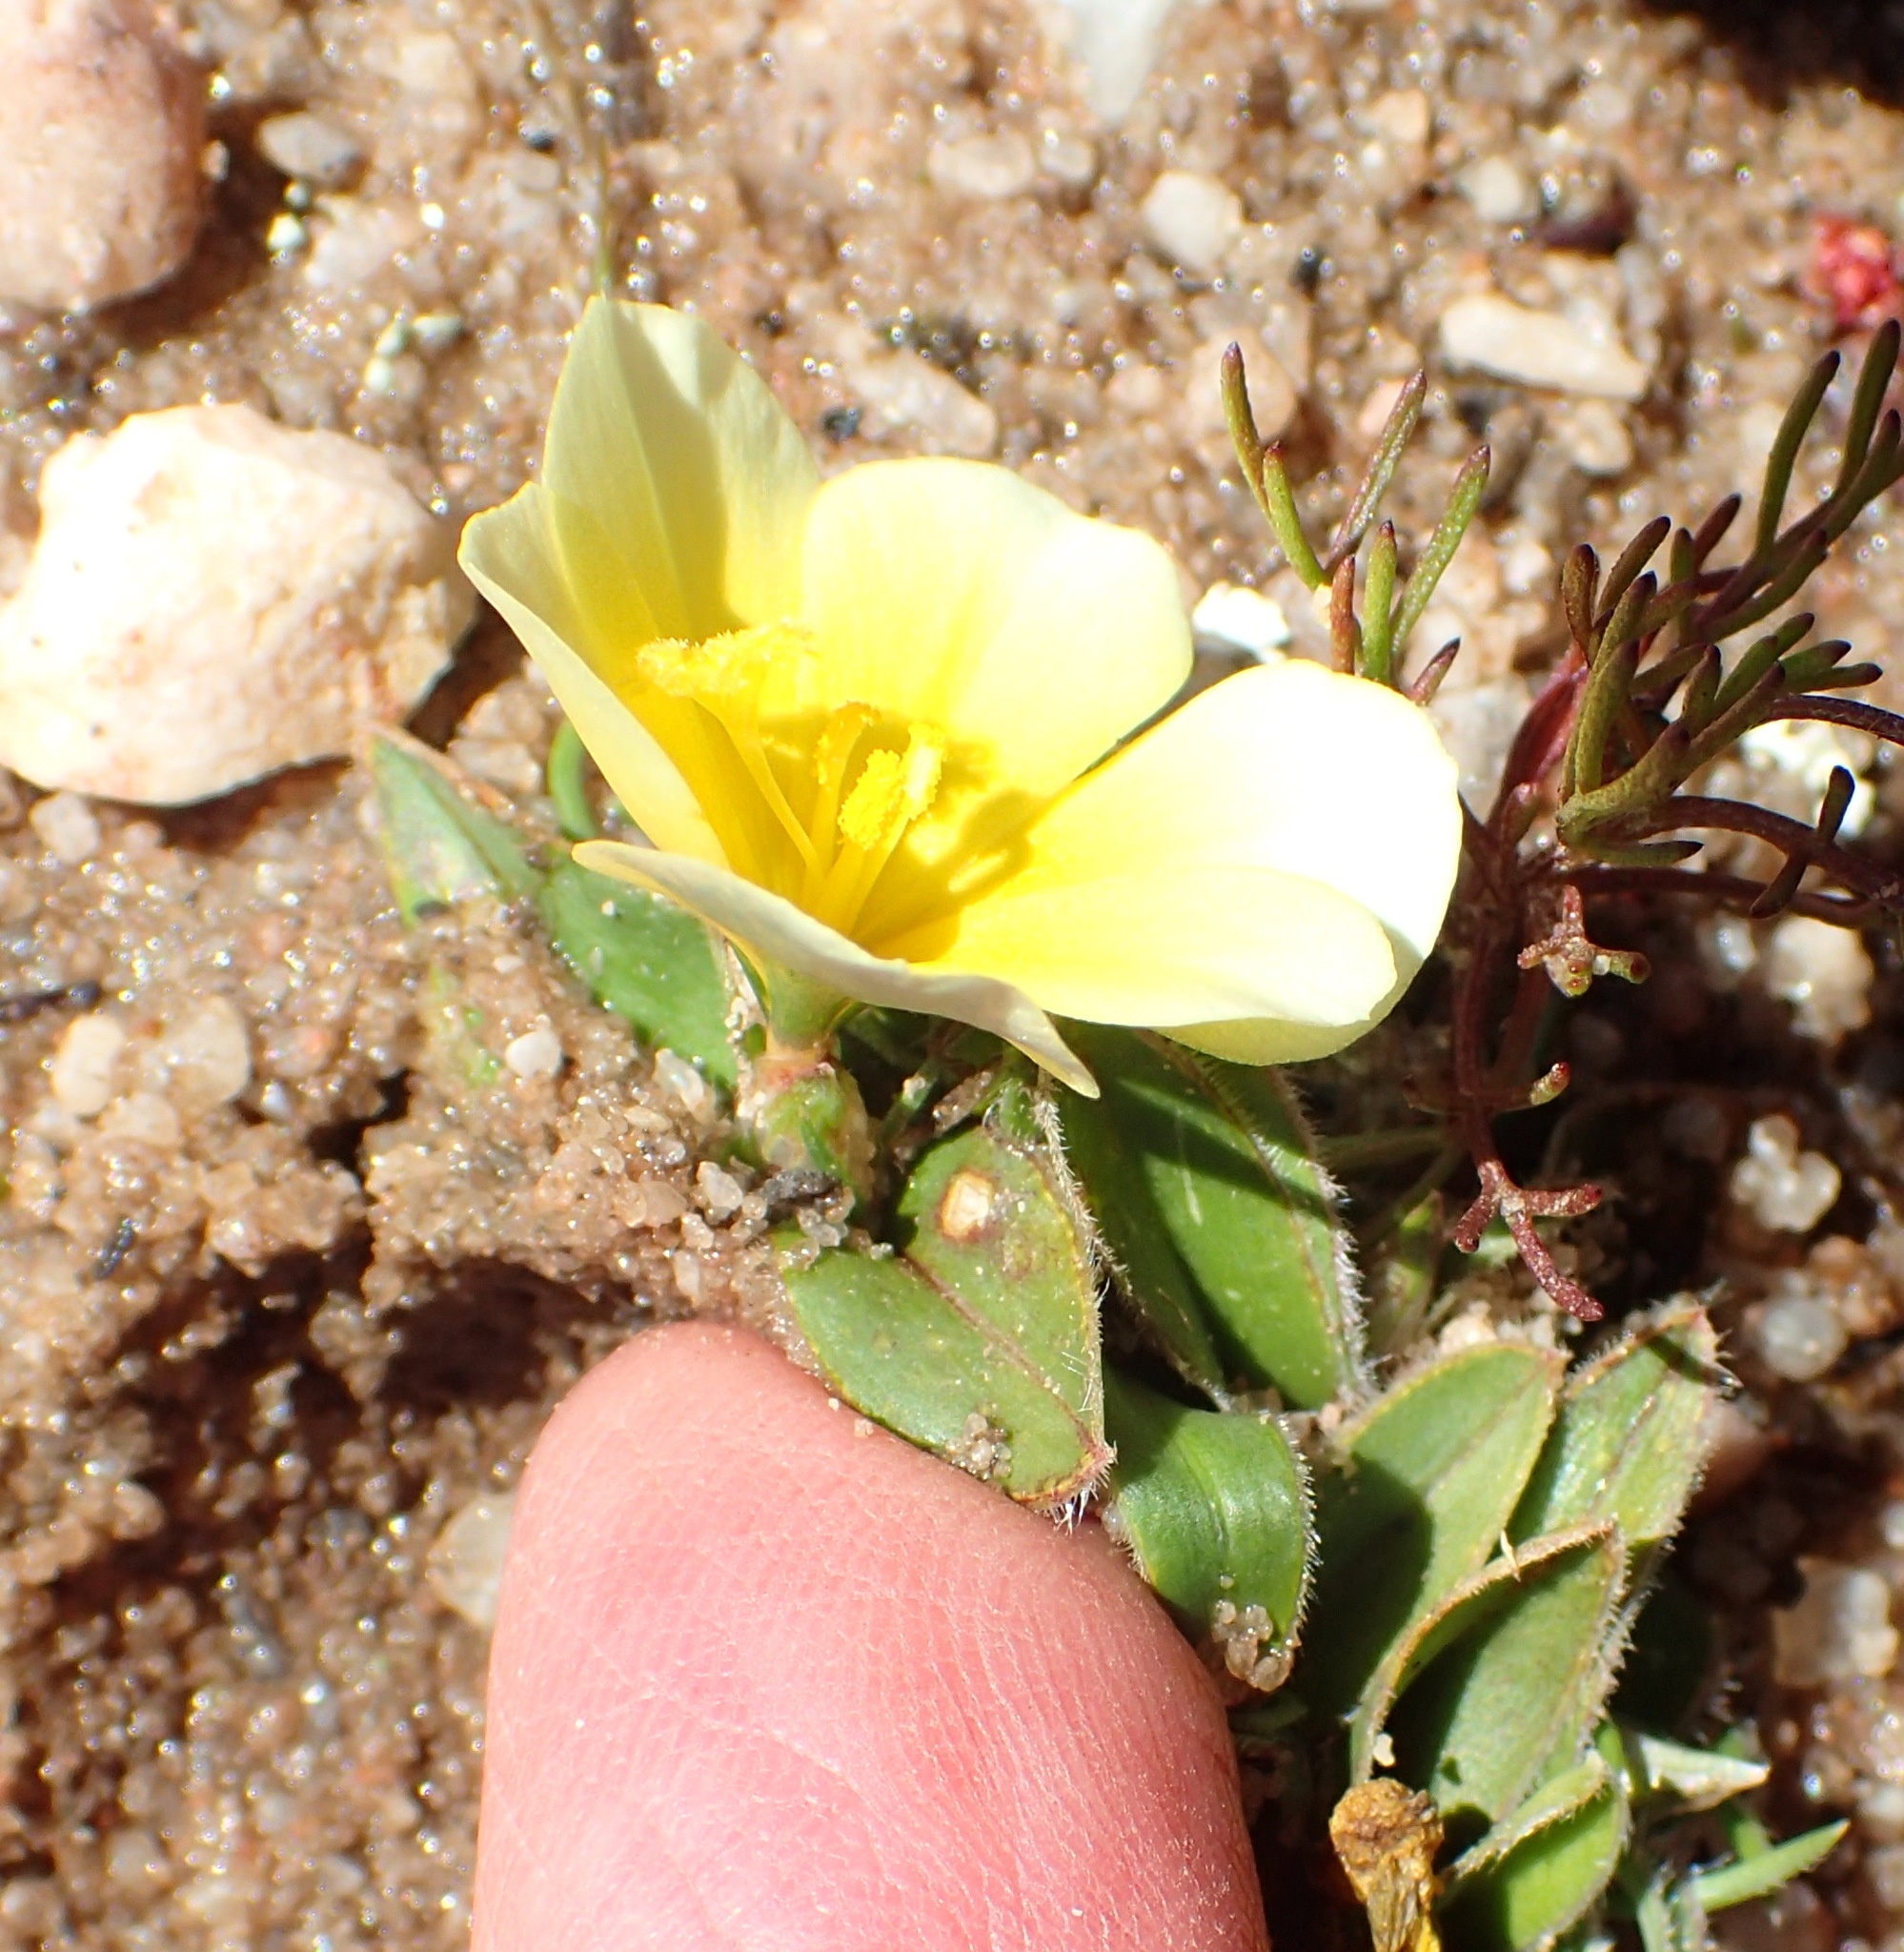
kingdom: Plantae
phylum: Tracheophyta
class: Liliopsida
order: Asparagales
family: Iridaceae
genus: Moraea
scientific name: Moraea luteoalba
